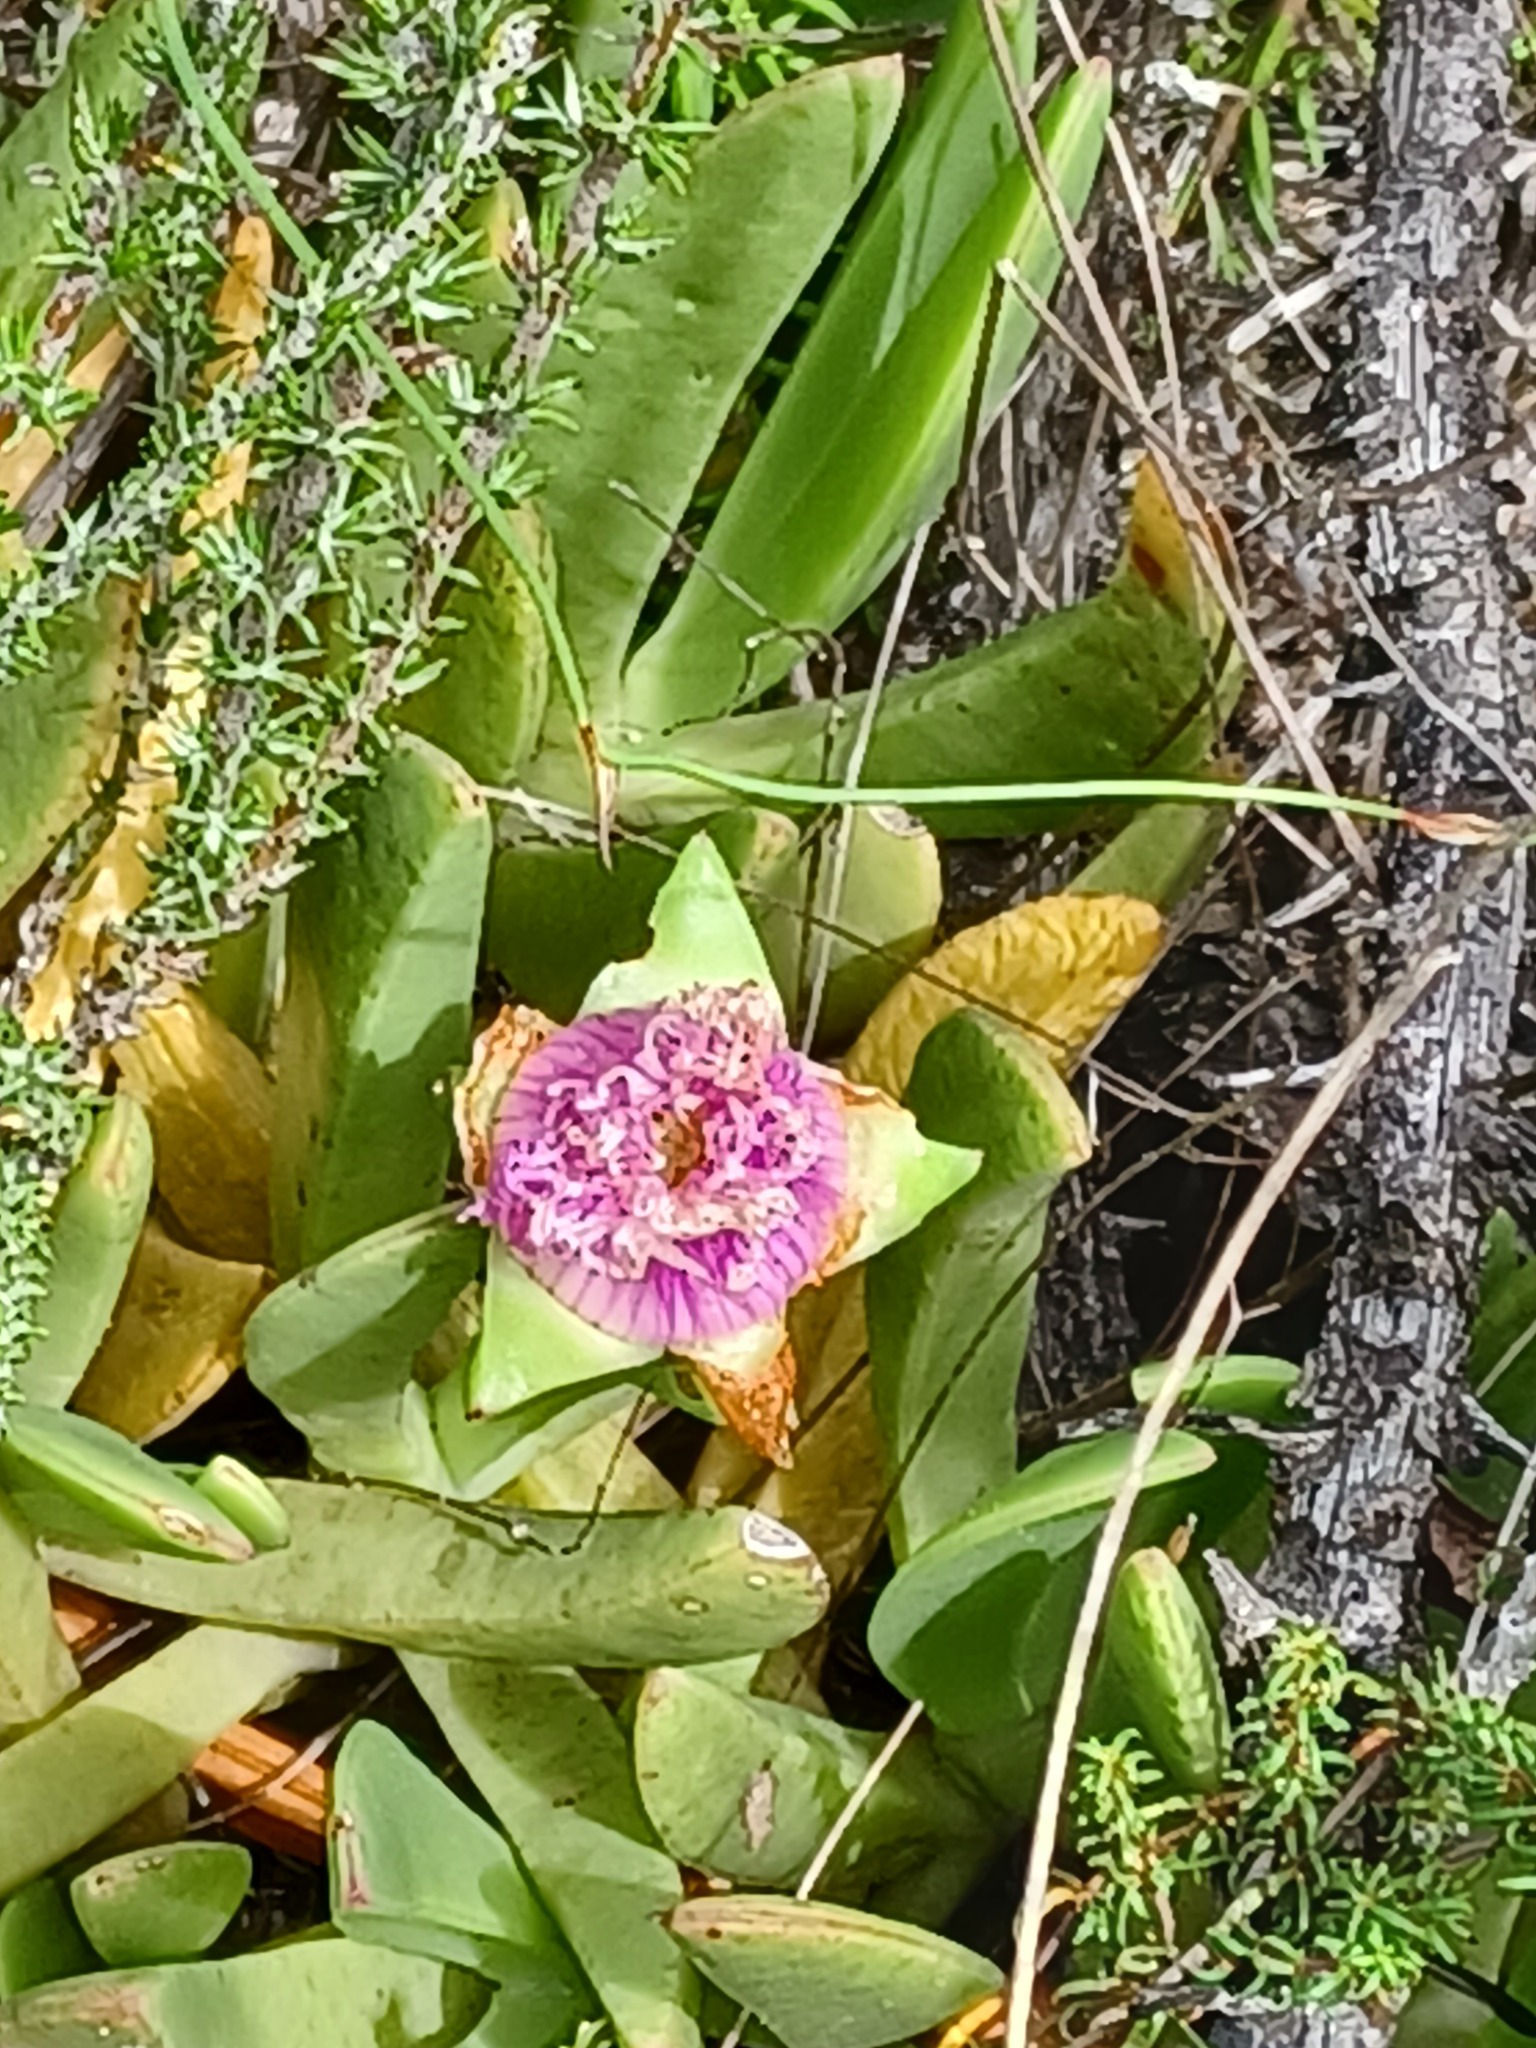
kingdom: Plantae
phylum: Tracheophyta
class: Magnoliopsida
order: Caryophyllales
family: Aizoaceae
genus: Carpobrotus
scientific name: Carpobrotus mellei
